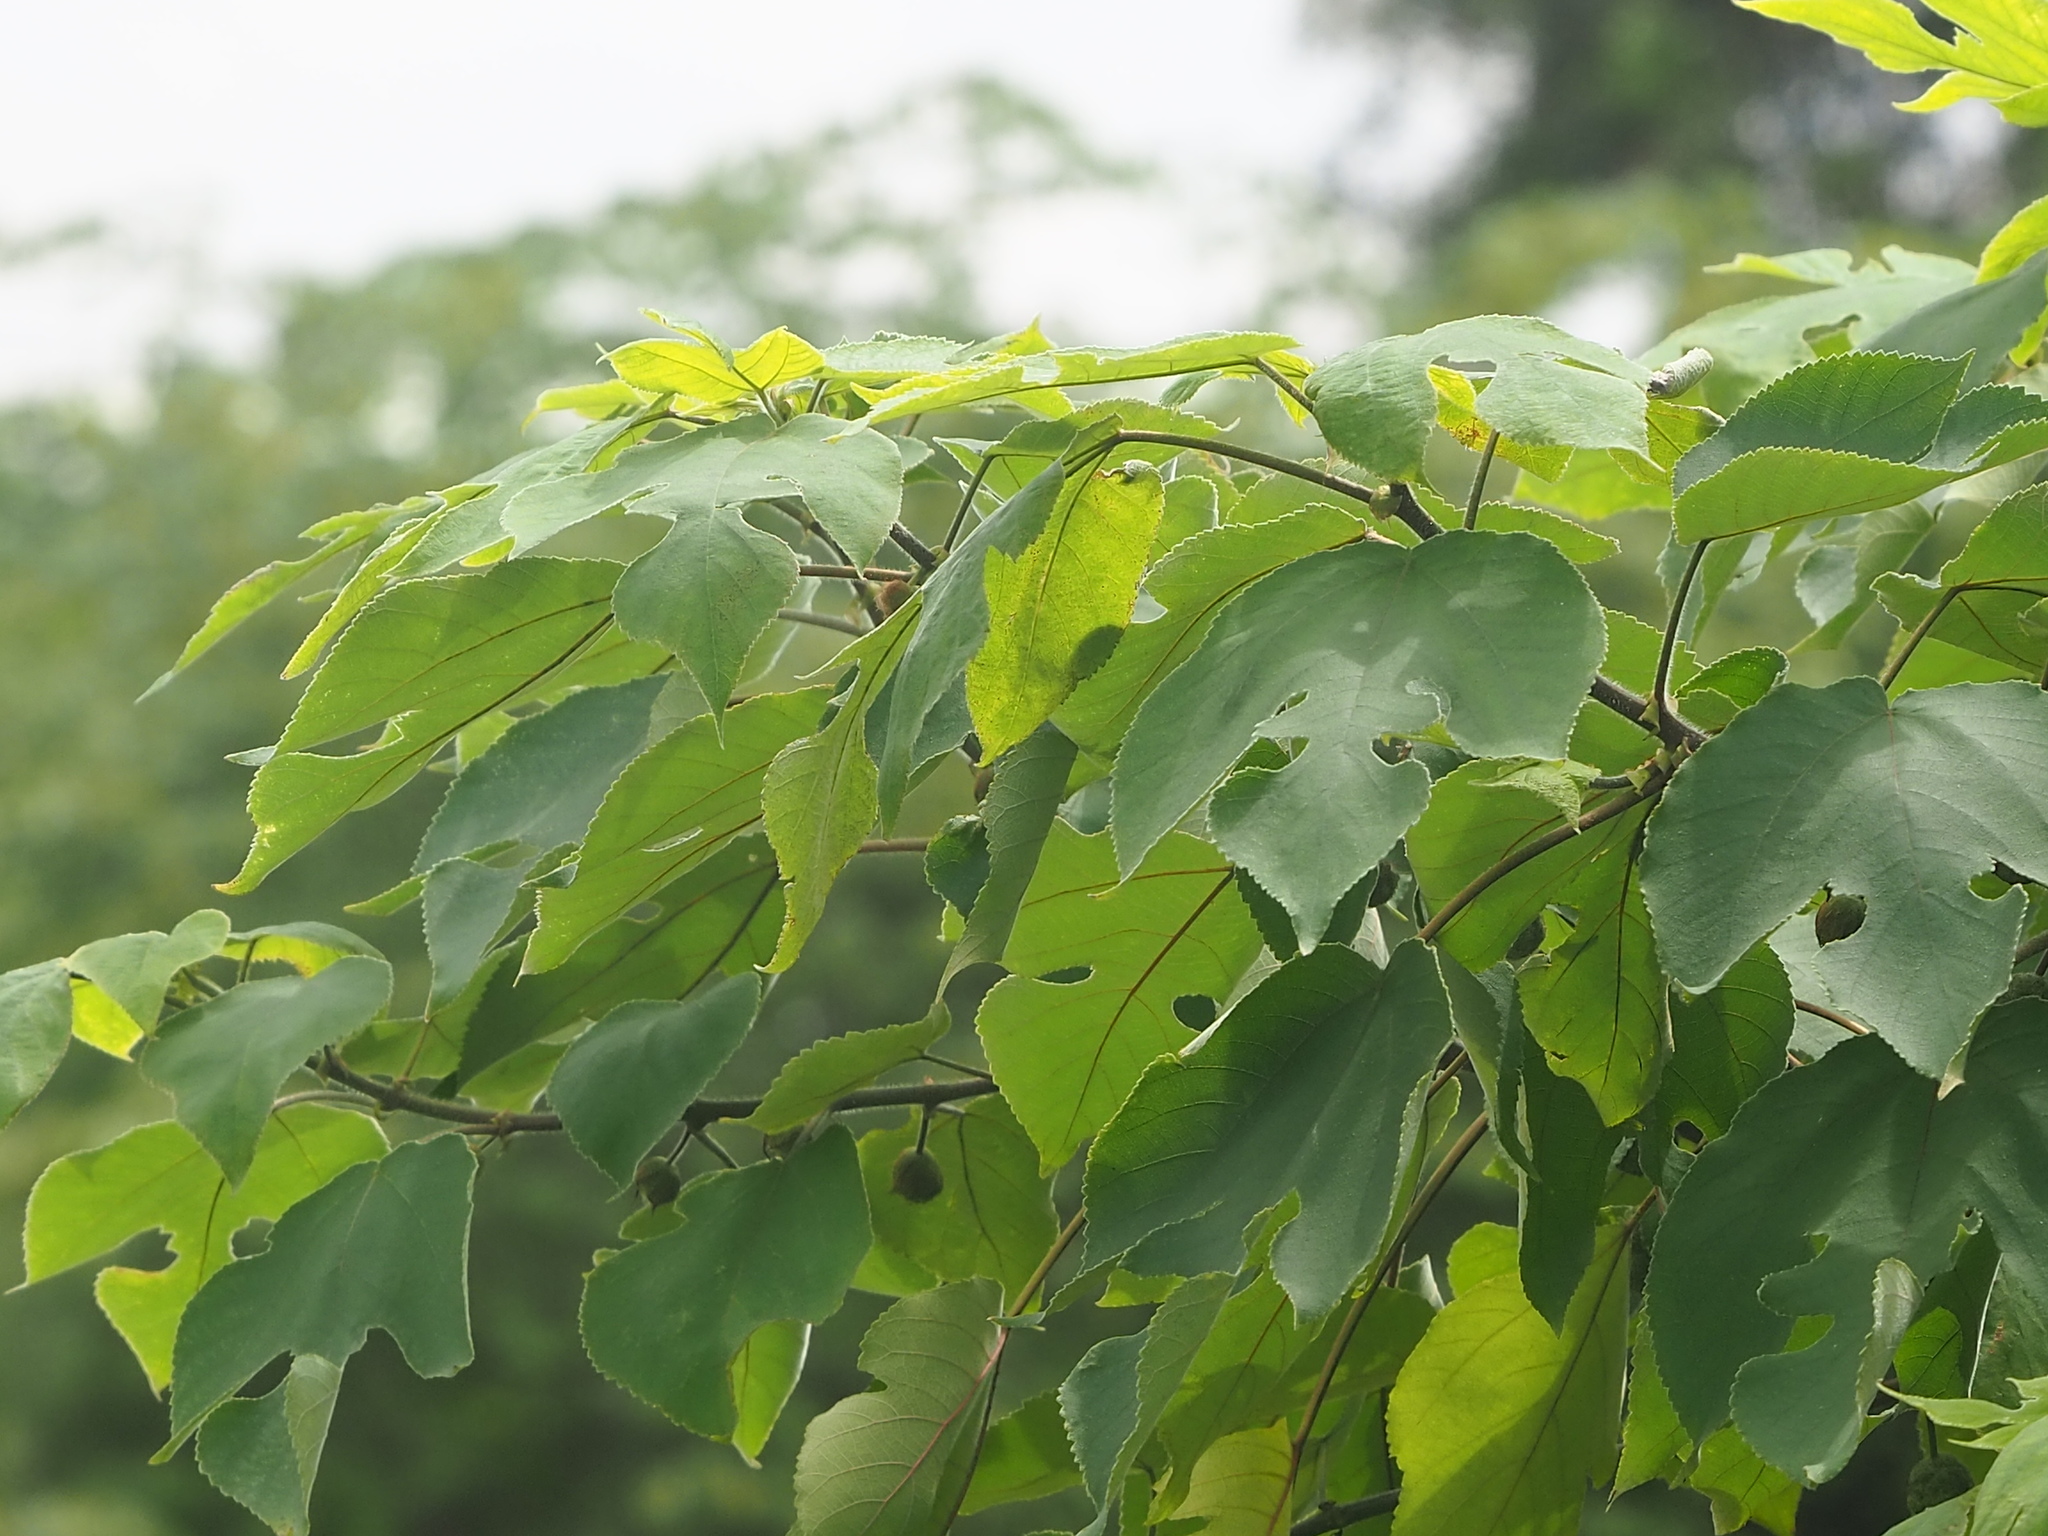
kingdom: Plantae
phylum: Tracheophyta
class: Magnoliopsida
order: Rosales
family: Moraceae
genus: Broussonetia
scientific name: Broussonetia papyrifera
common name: Paper mulberry
